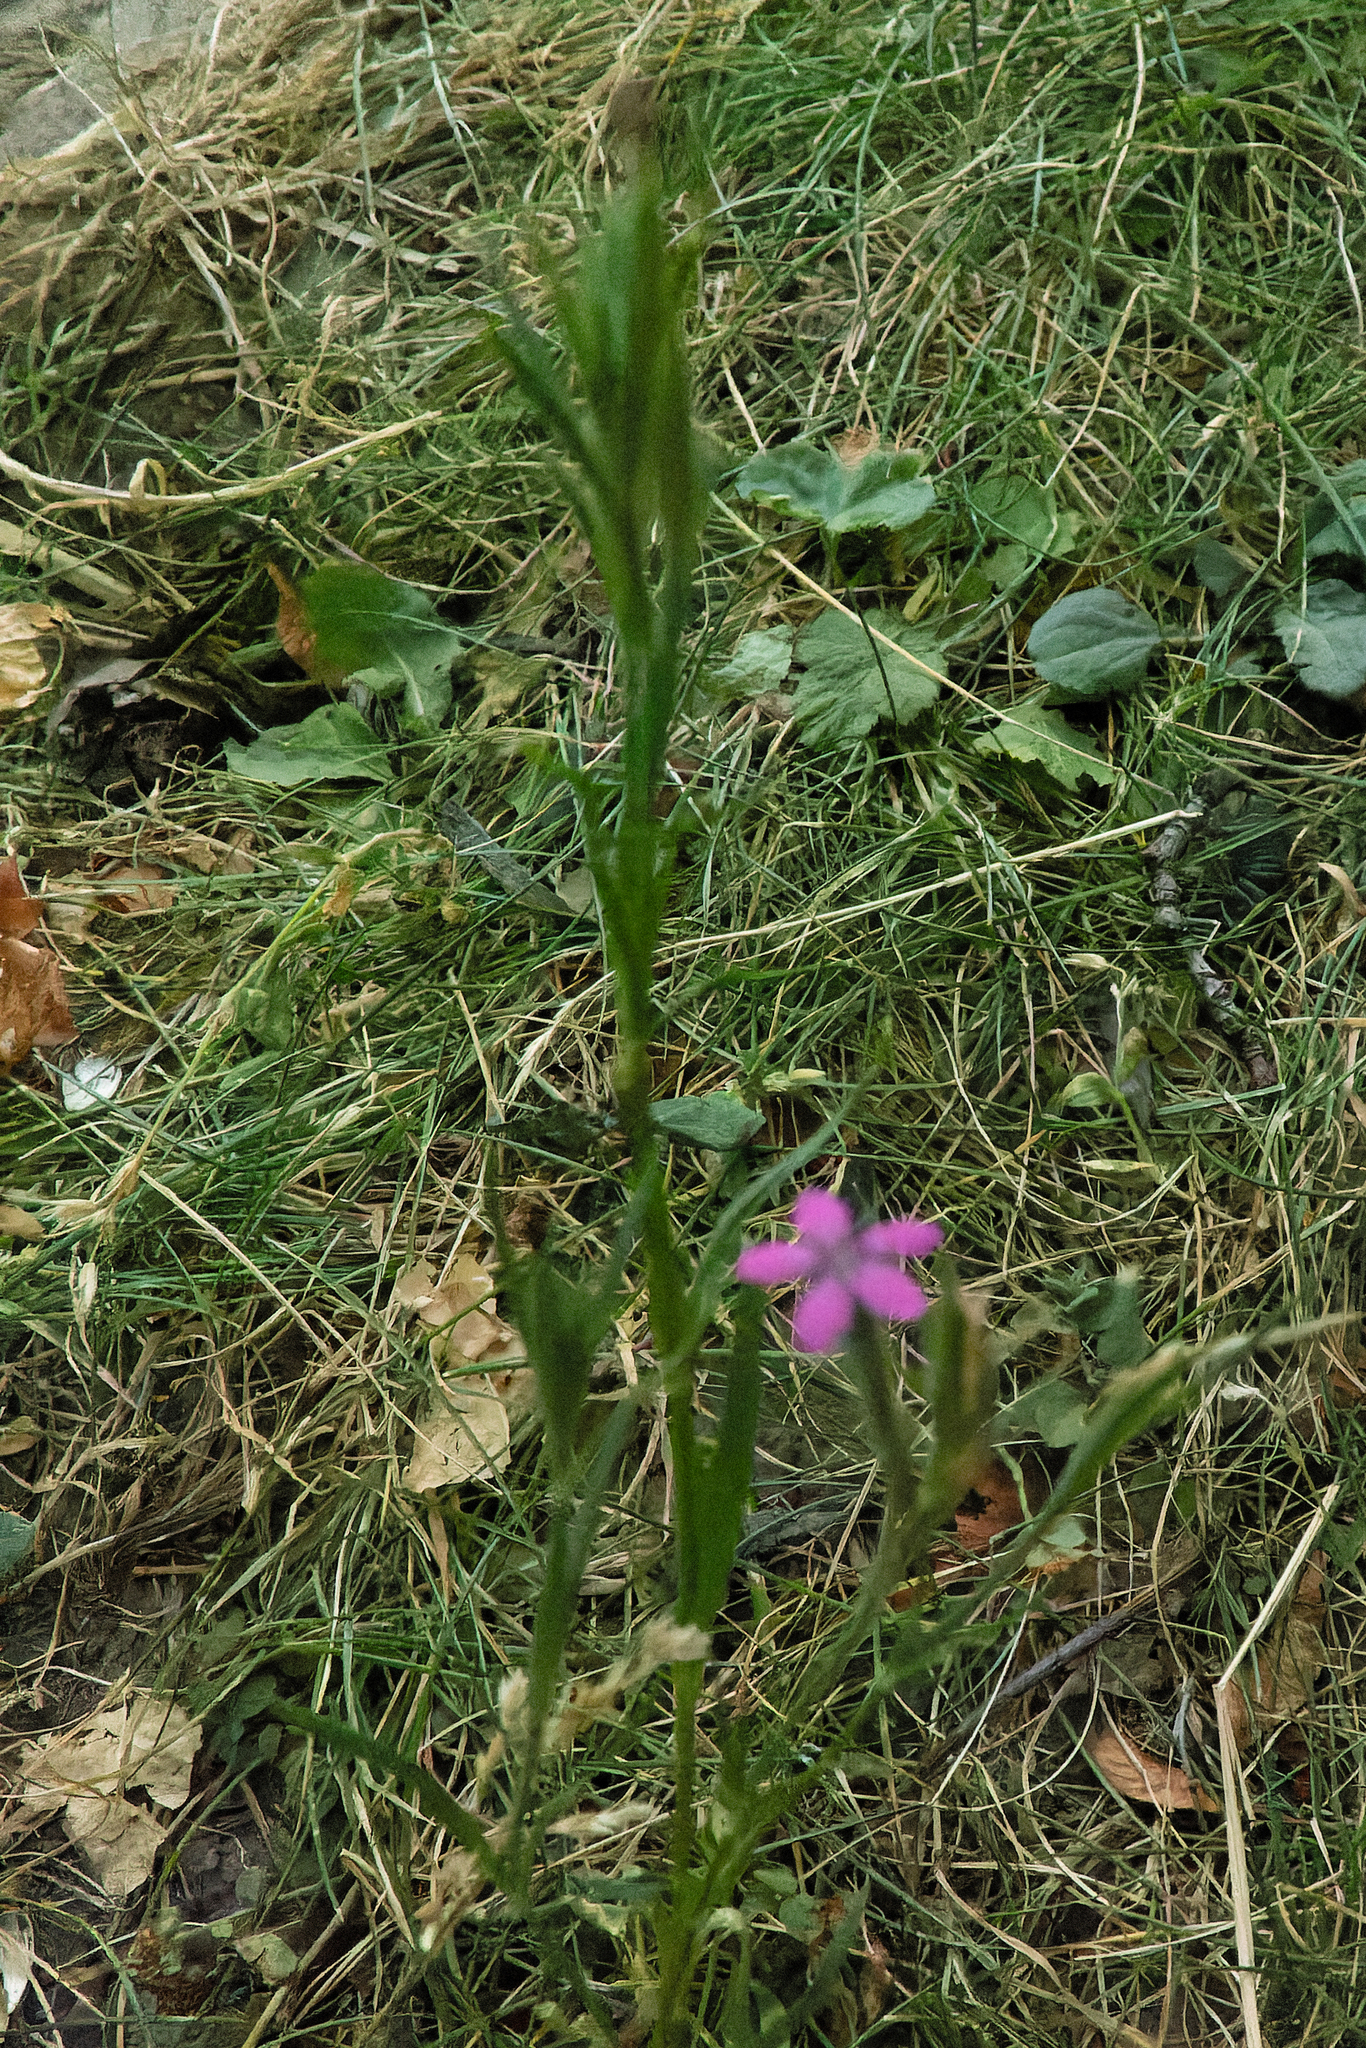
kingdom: Plantae
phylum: Tracheophyta
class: Magnoliopsida
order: Caryophyllales
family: Caryophyllaceae
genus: Dianthus
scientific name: Dianthus armeria
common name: Deptford pink
